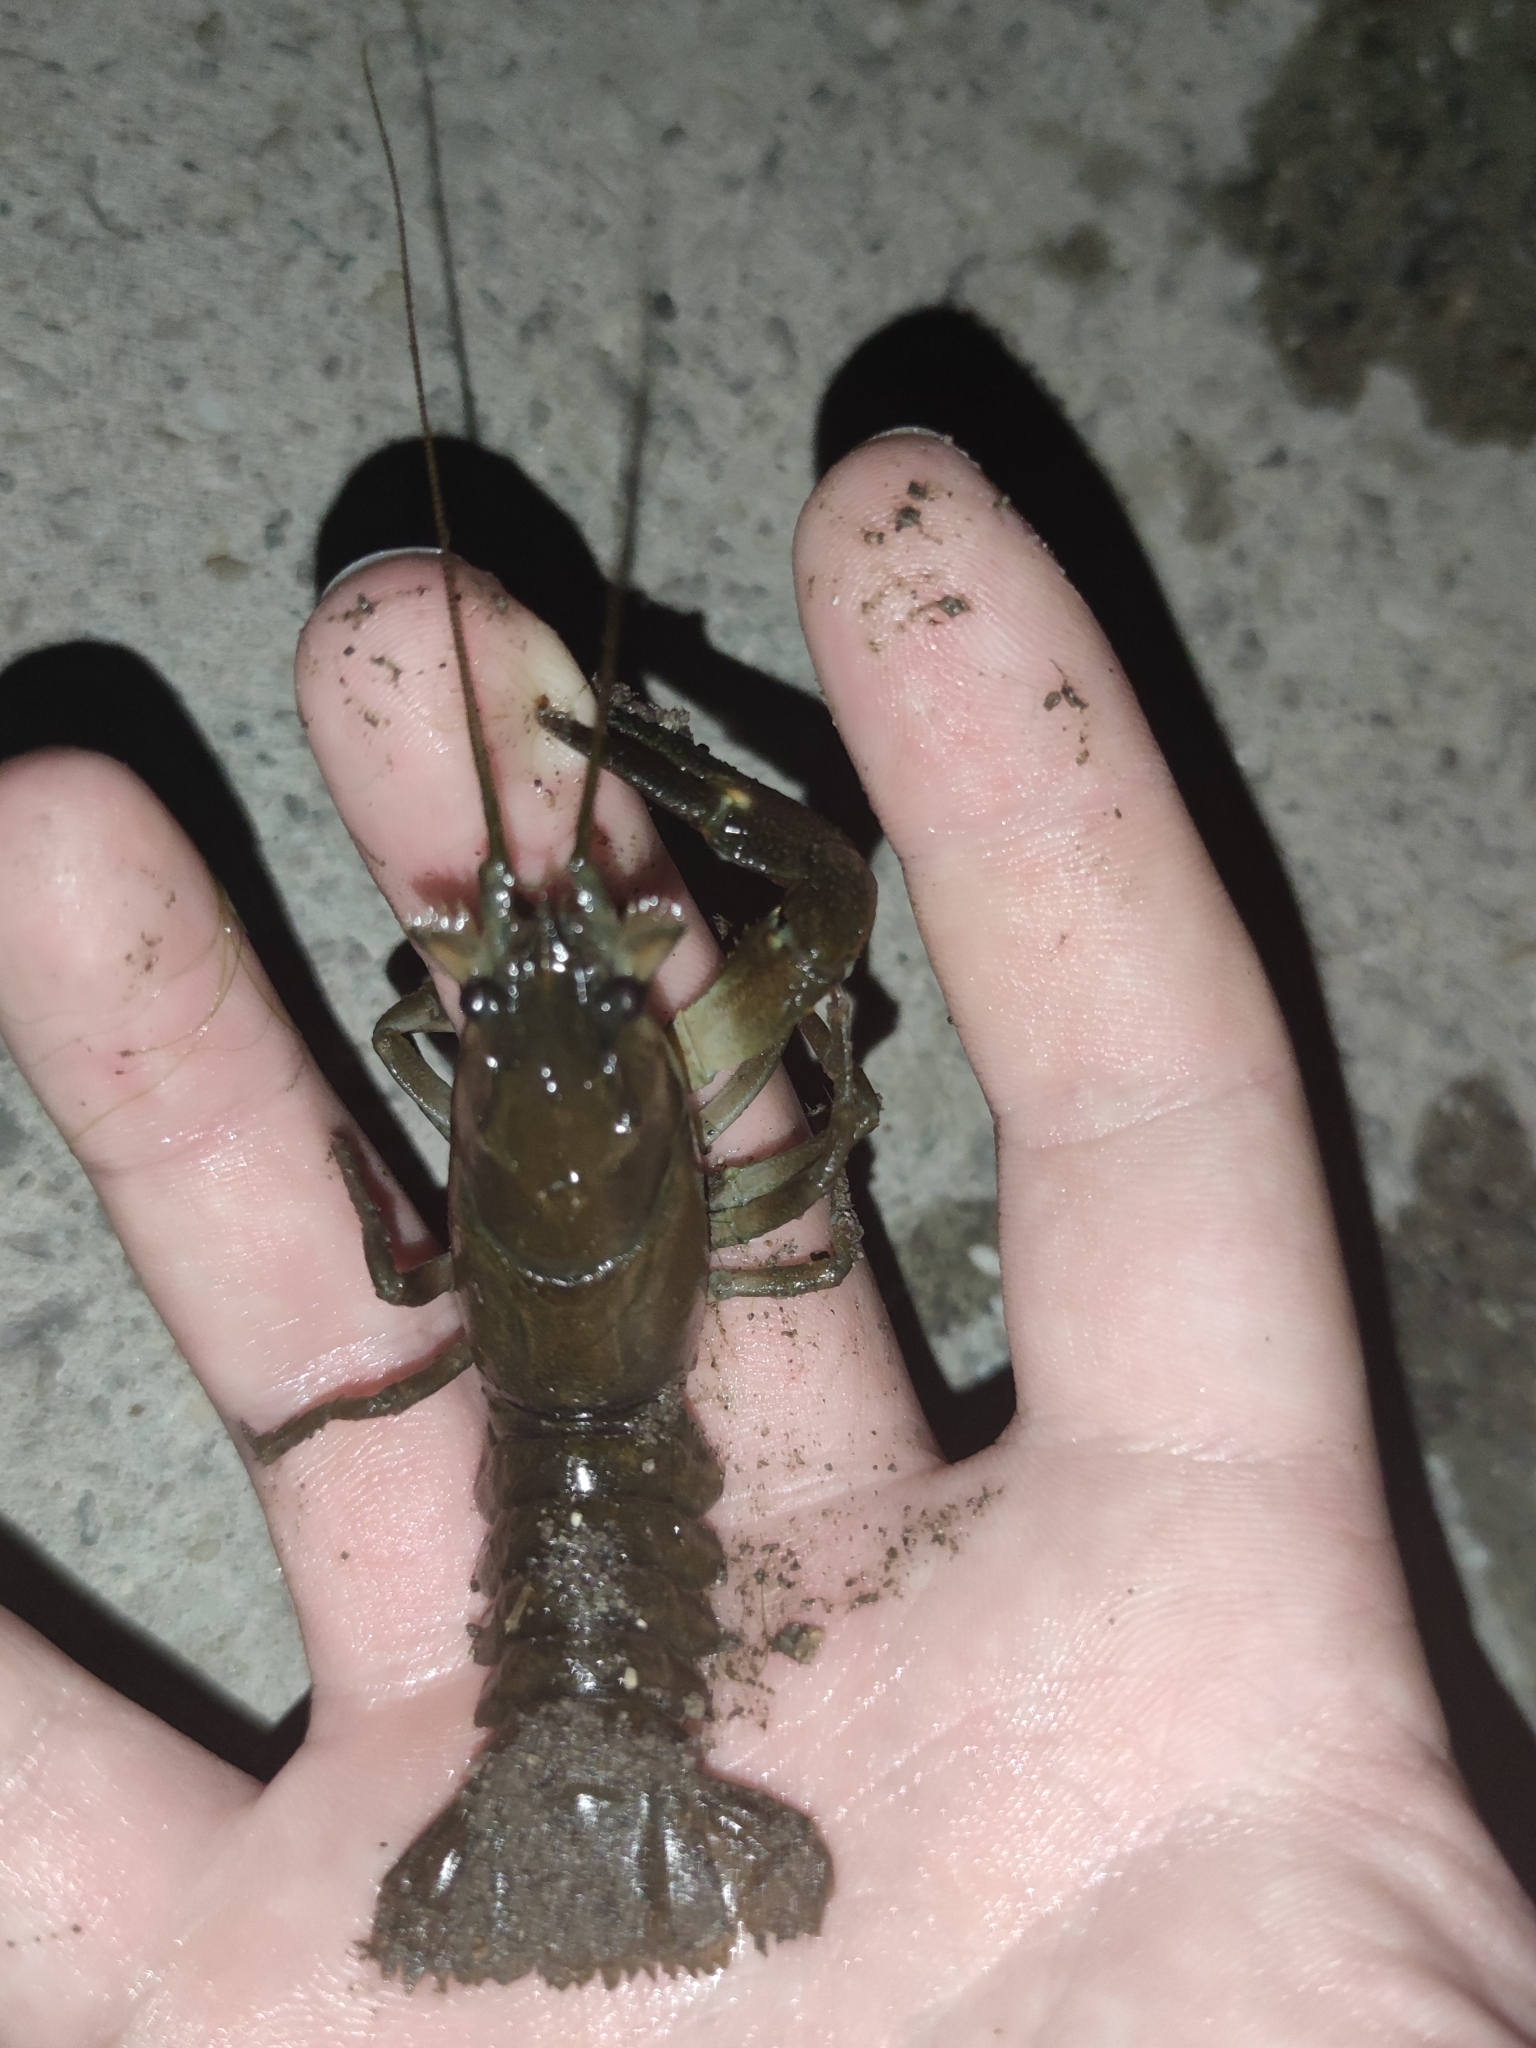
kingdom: Animalia
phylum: Arthropoda
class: Malacostraca
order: Decapoda
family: Astacidae
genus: Pacifastacus
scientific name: Pacifastacus leniusculus
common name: Signal crayfish
